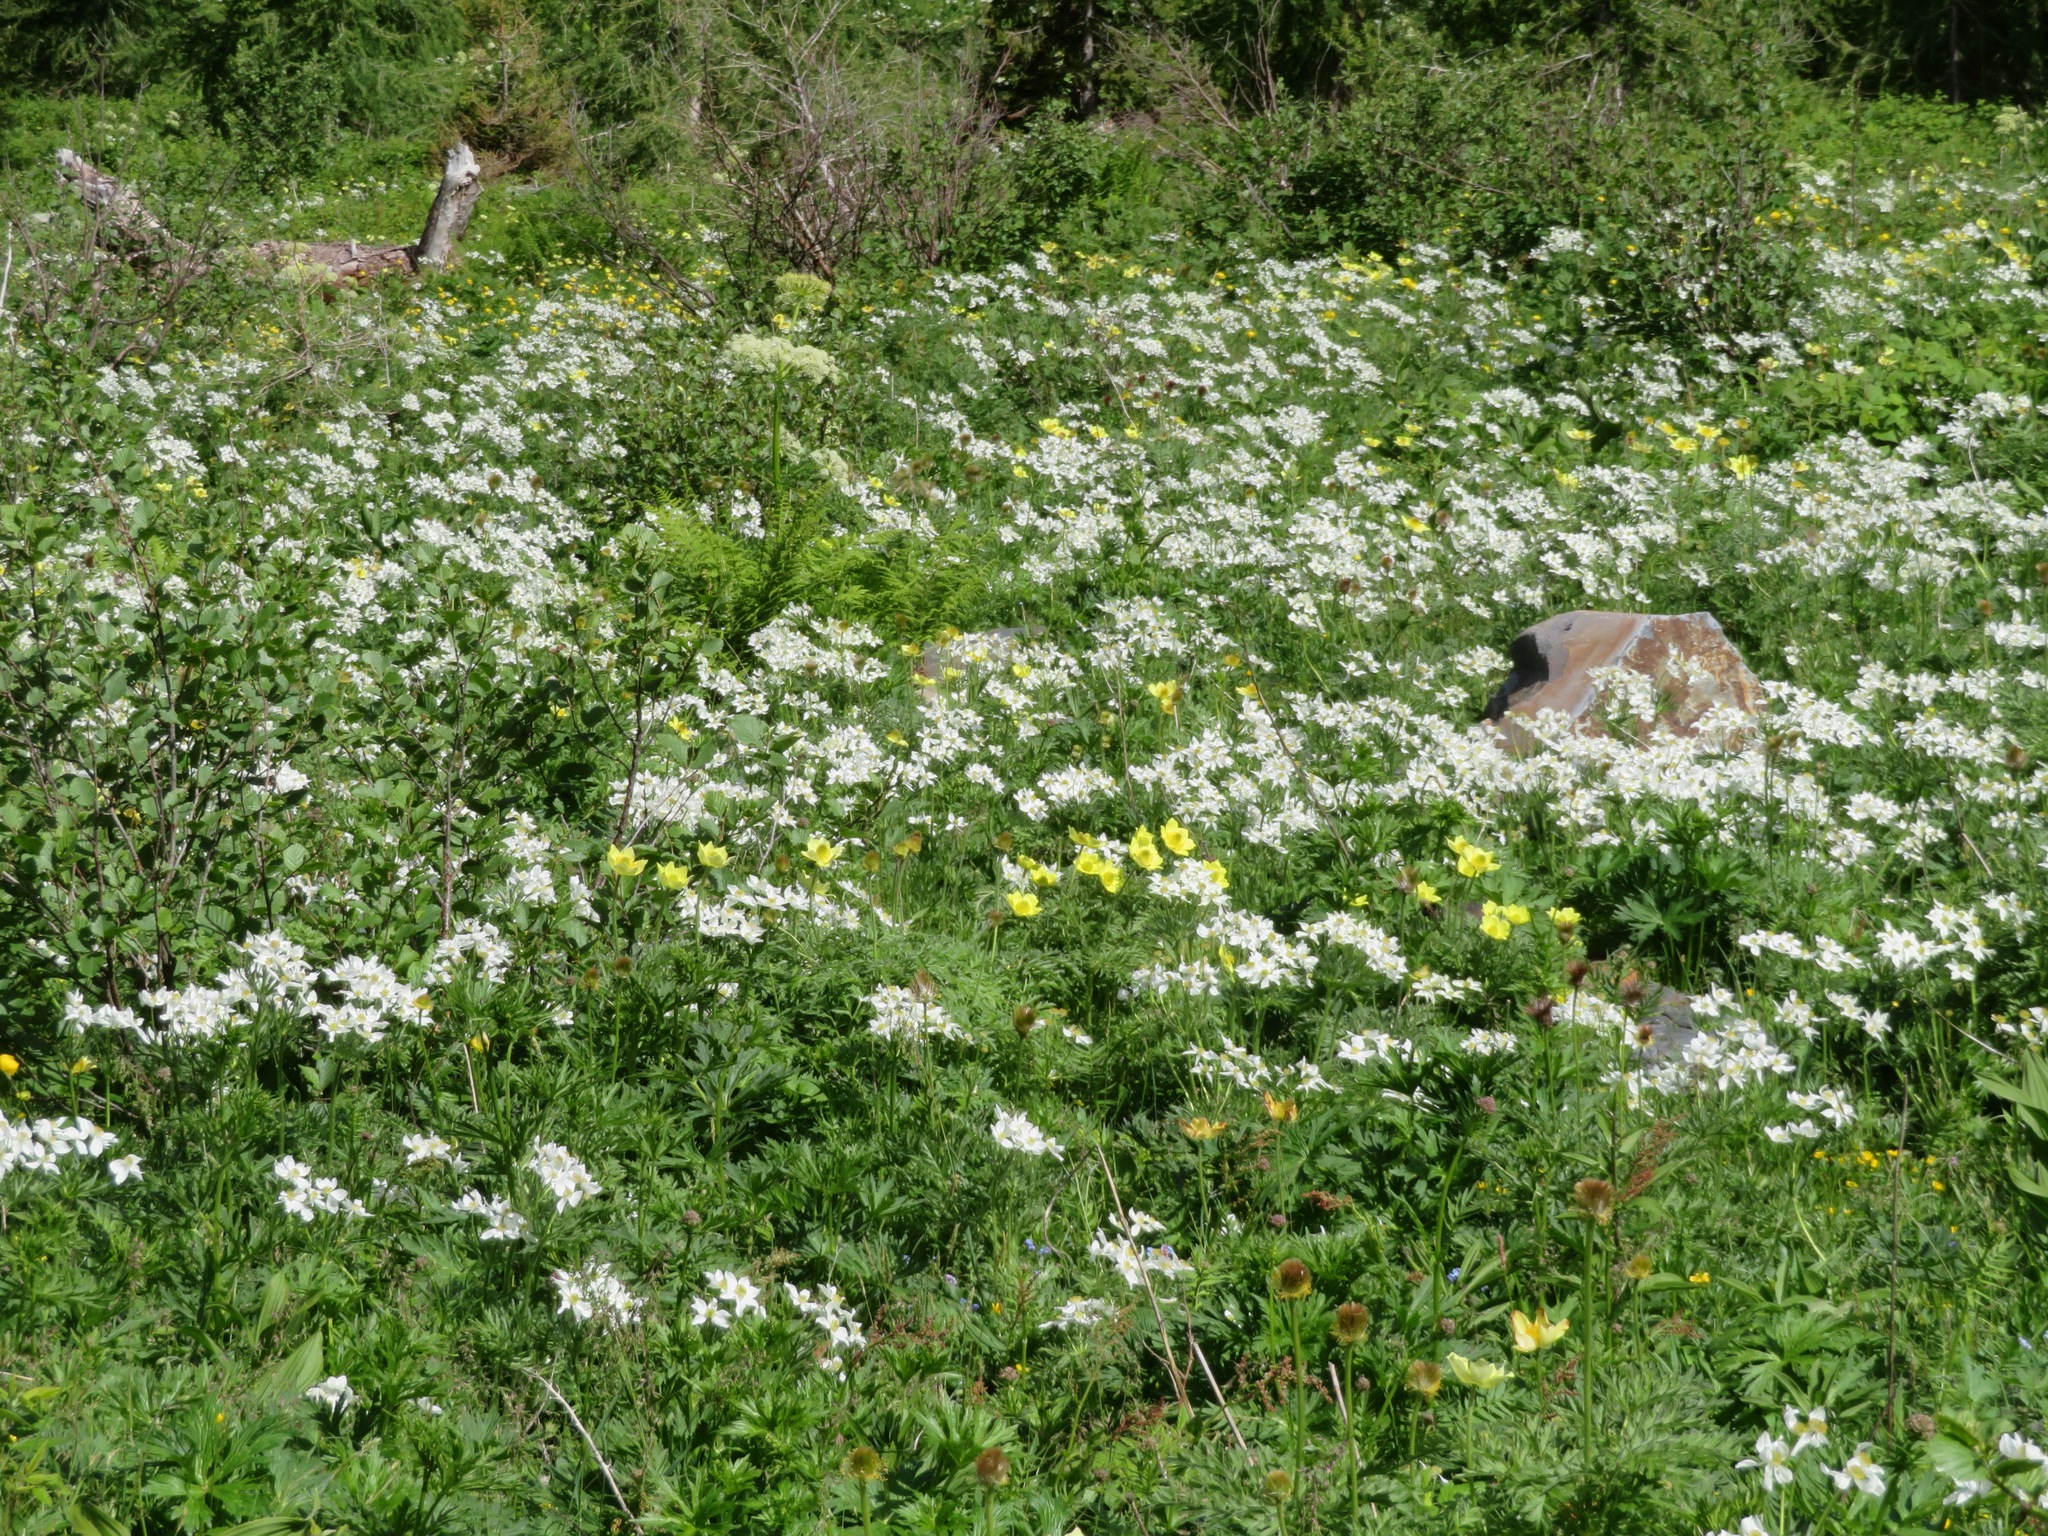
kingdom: Plantae
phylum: Tracheophyta
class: Magnoliopsida
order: Ranunculales
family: Ranunculaceae
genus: Anemonastrum
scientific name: Anemonastrum narcissiflorum
